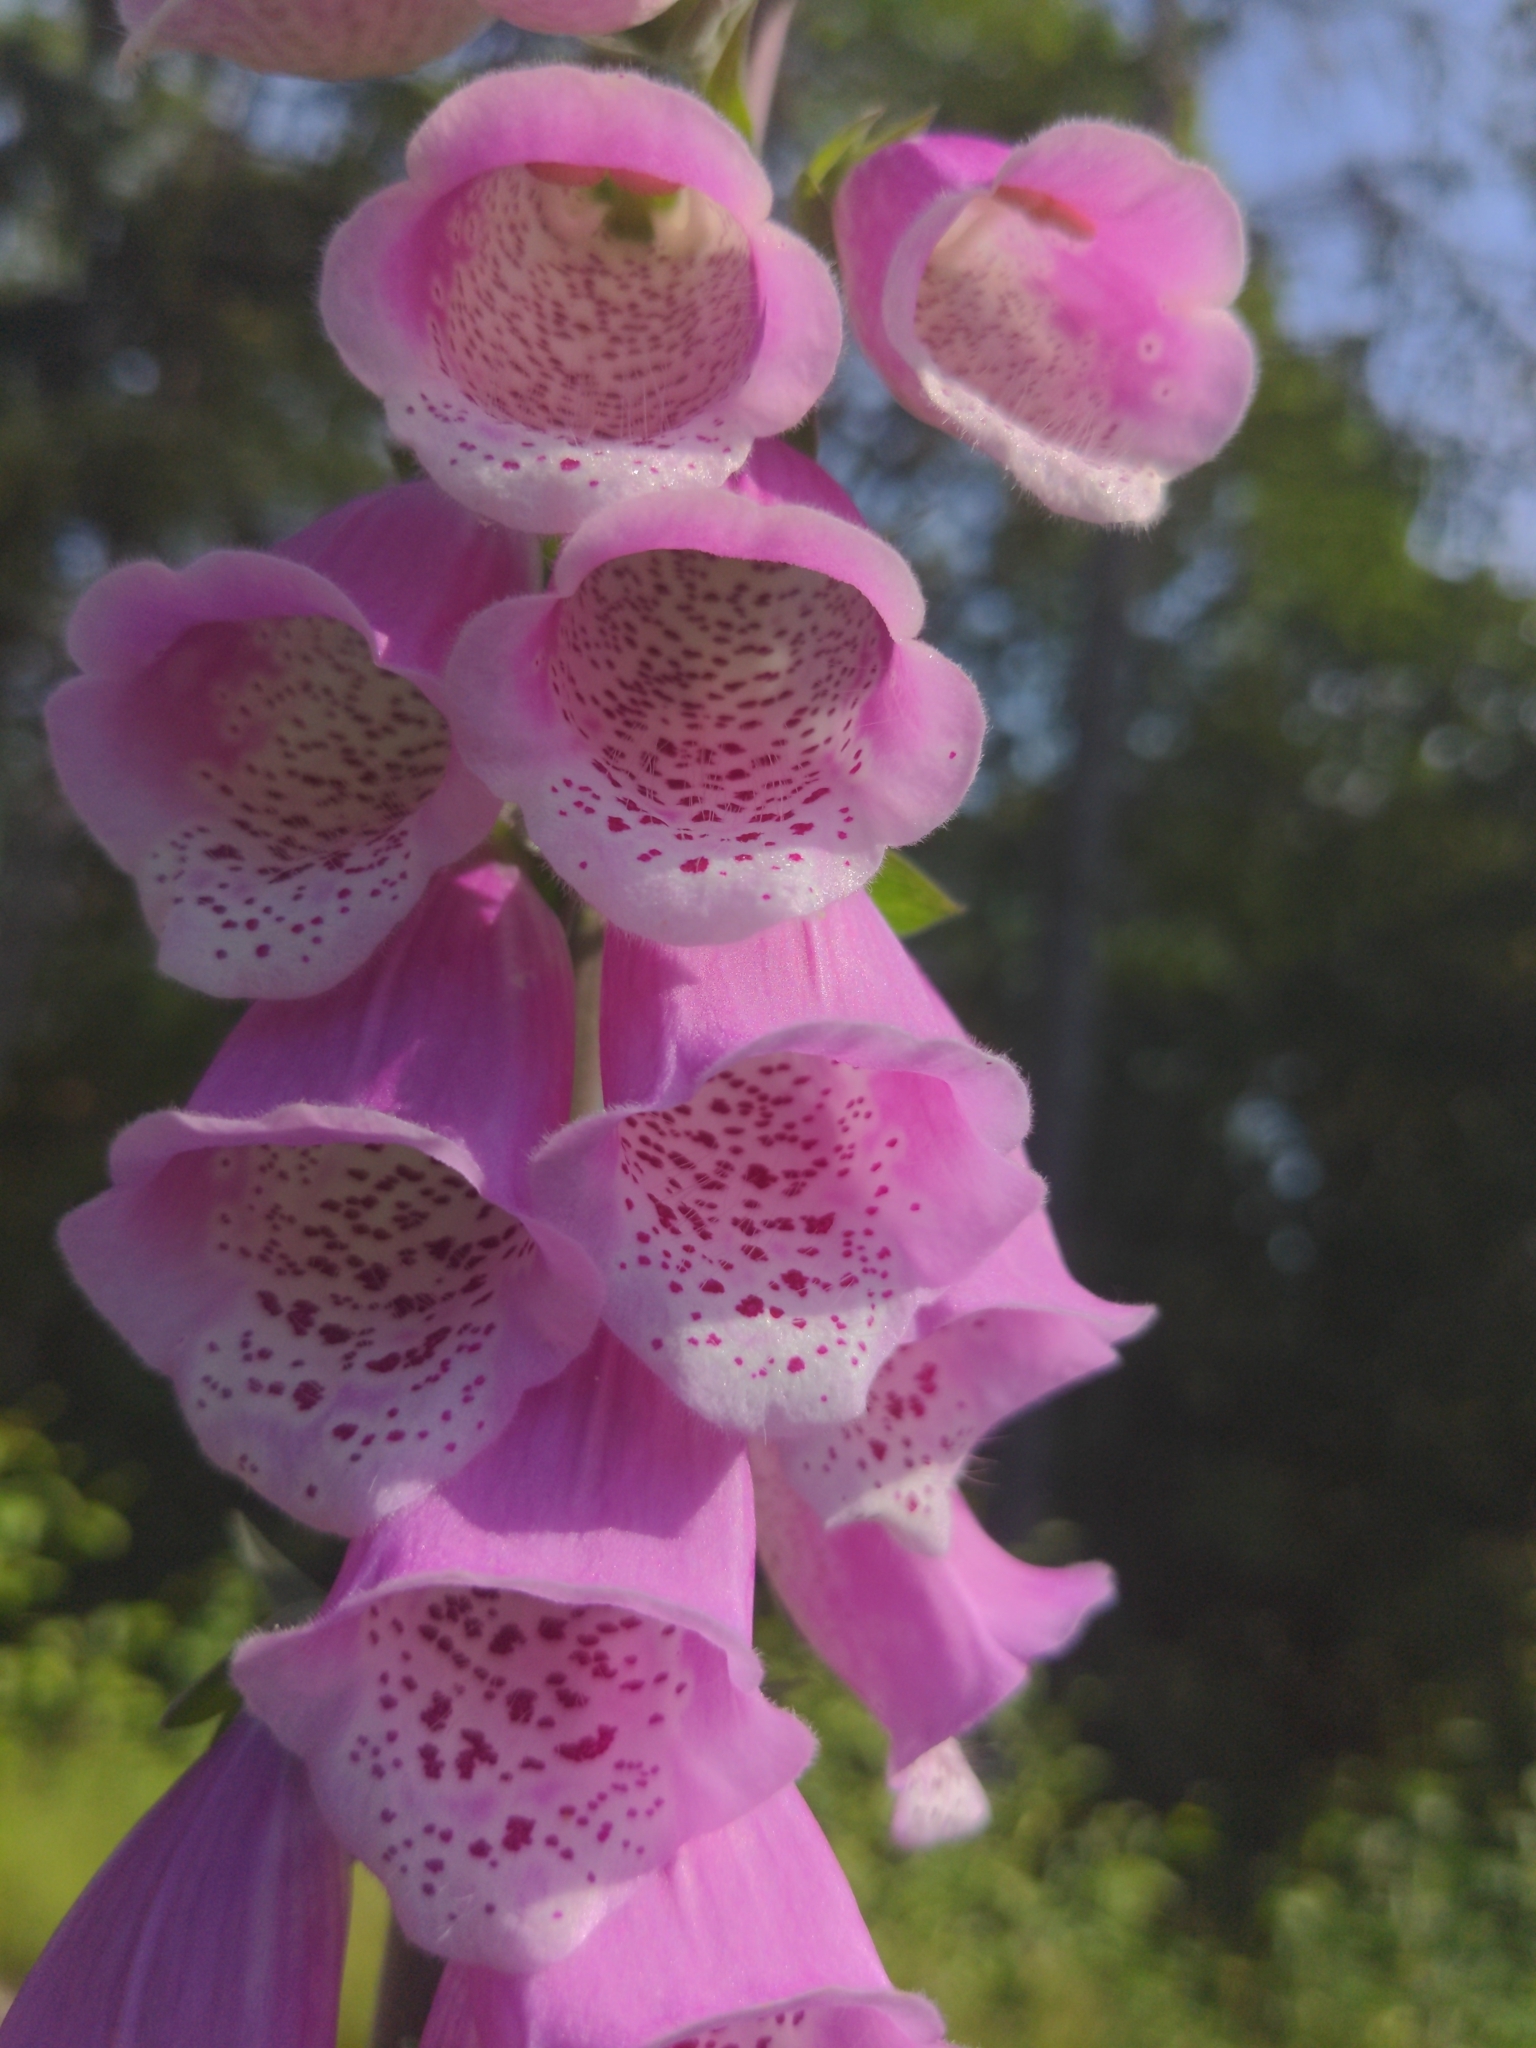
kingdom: Plantae
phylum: Tracheophyta
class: Magnoliopsida
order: Lamiales
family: Plantaginaceae
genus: Digitalis
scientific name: Digitalis purpurea
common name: Foxglove
